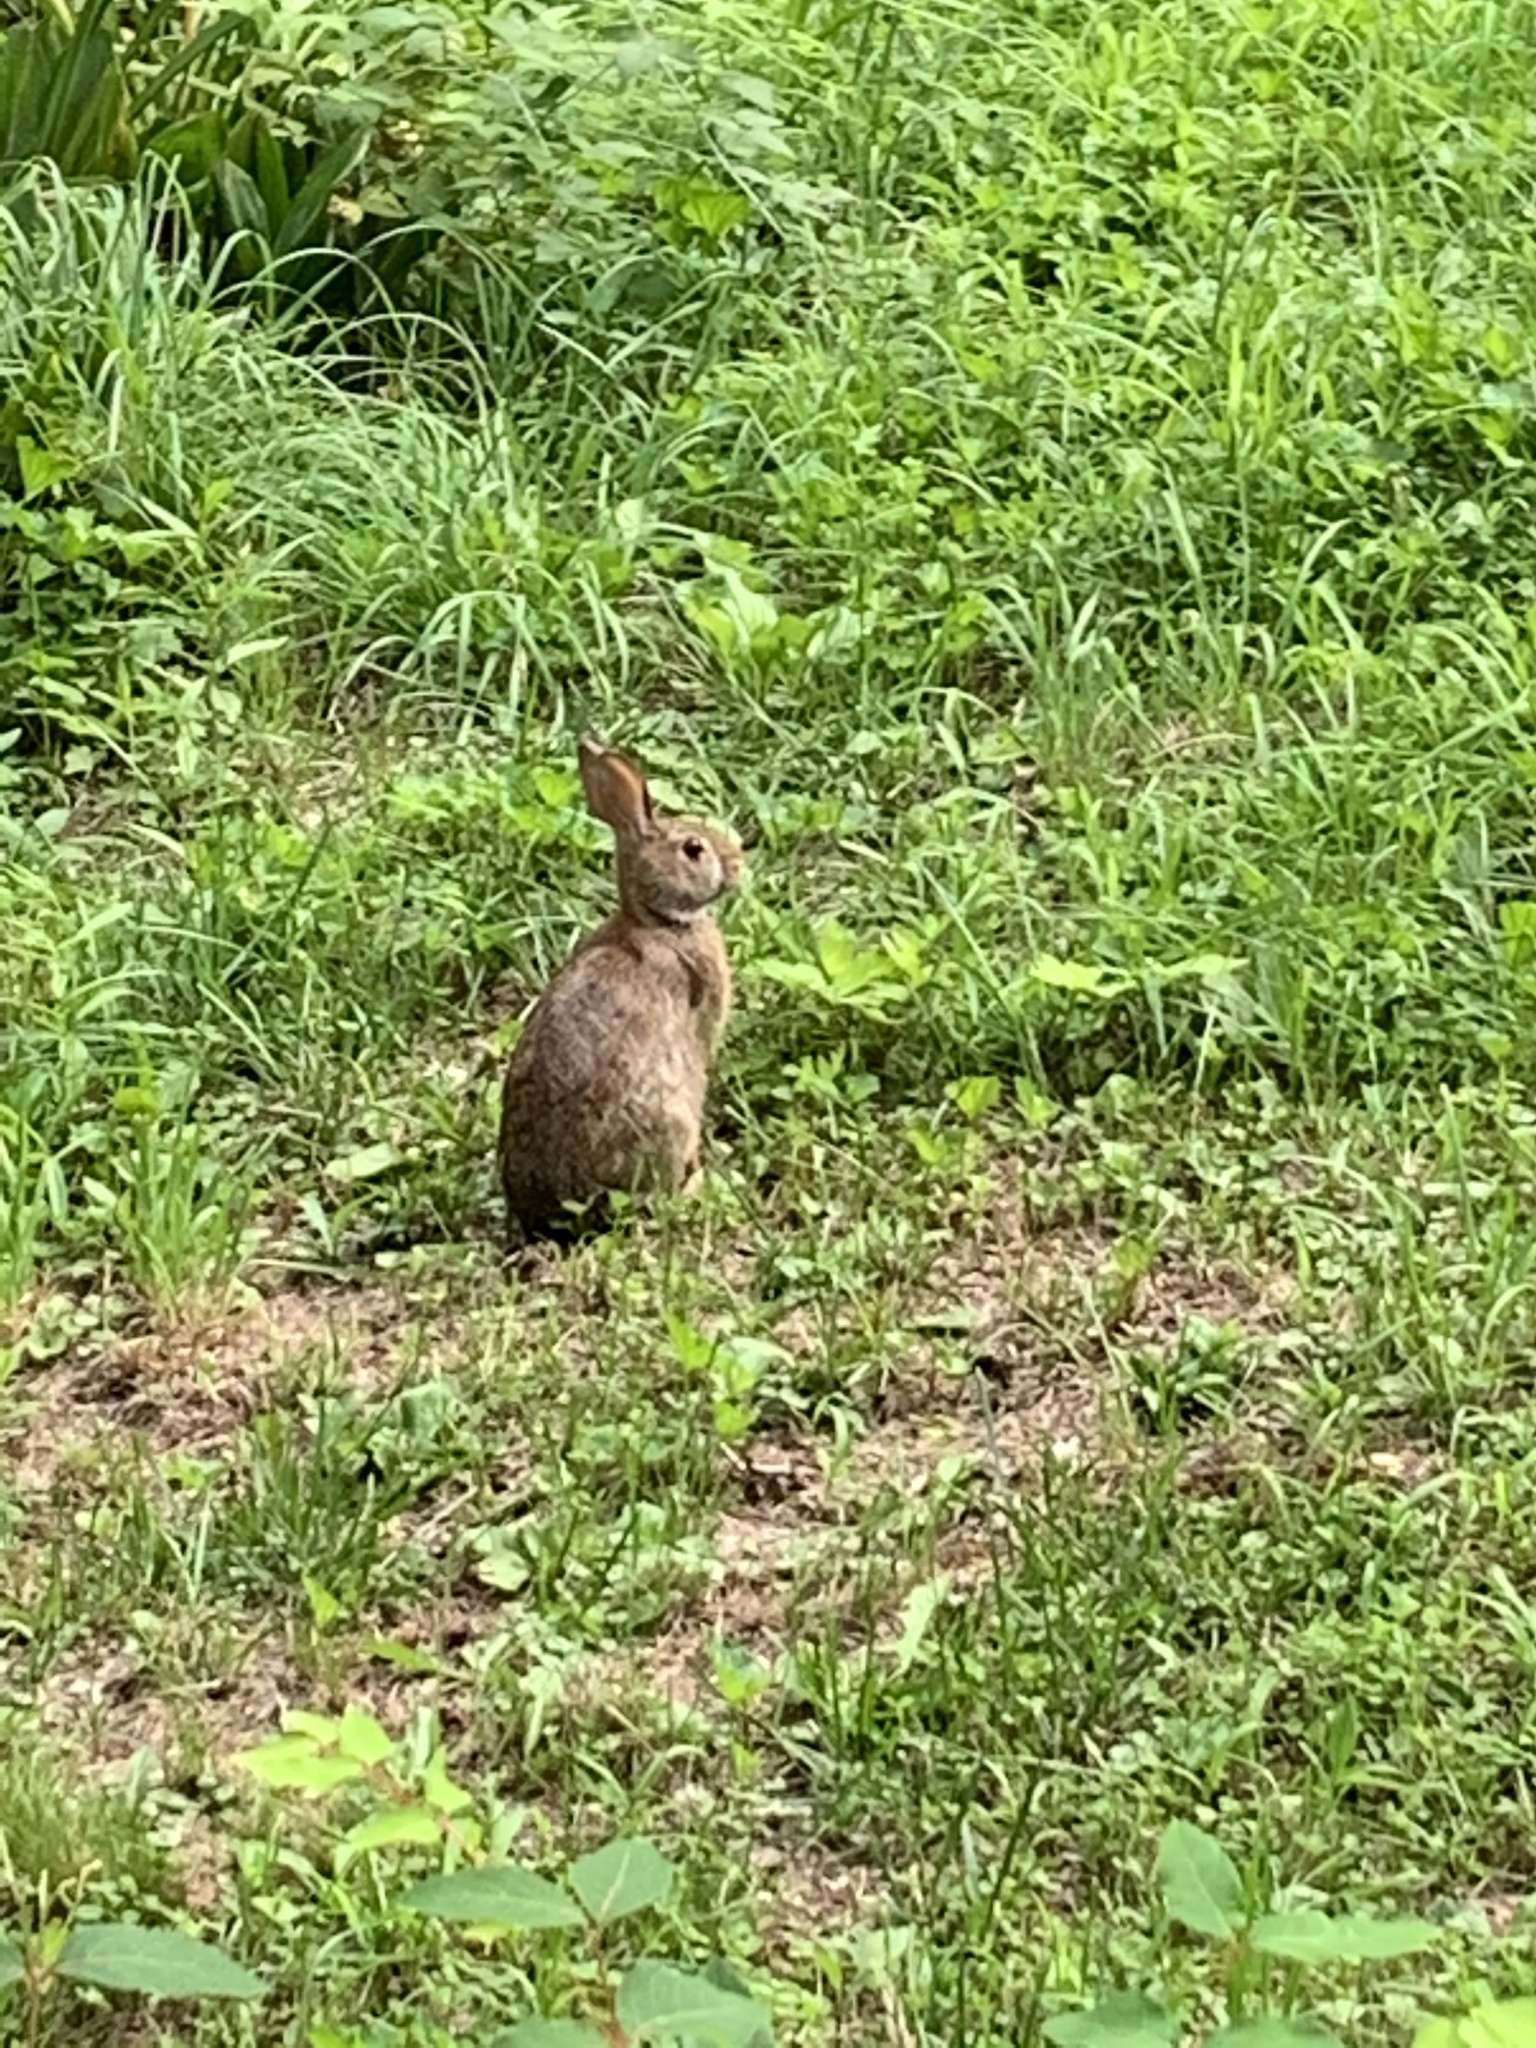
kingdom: Animalia
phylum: Chordata
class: Mammalia
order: Lagomorpha
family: Leporidae
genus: Sylvilagus
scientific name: Sylvilagus floridanus
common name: Eastern cottontail
